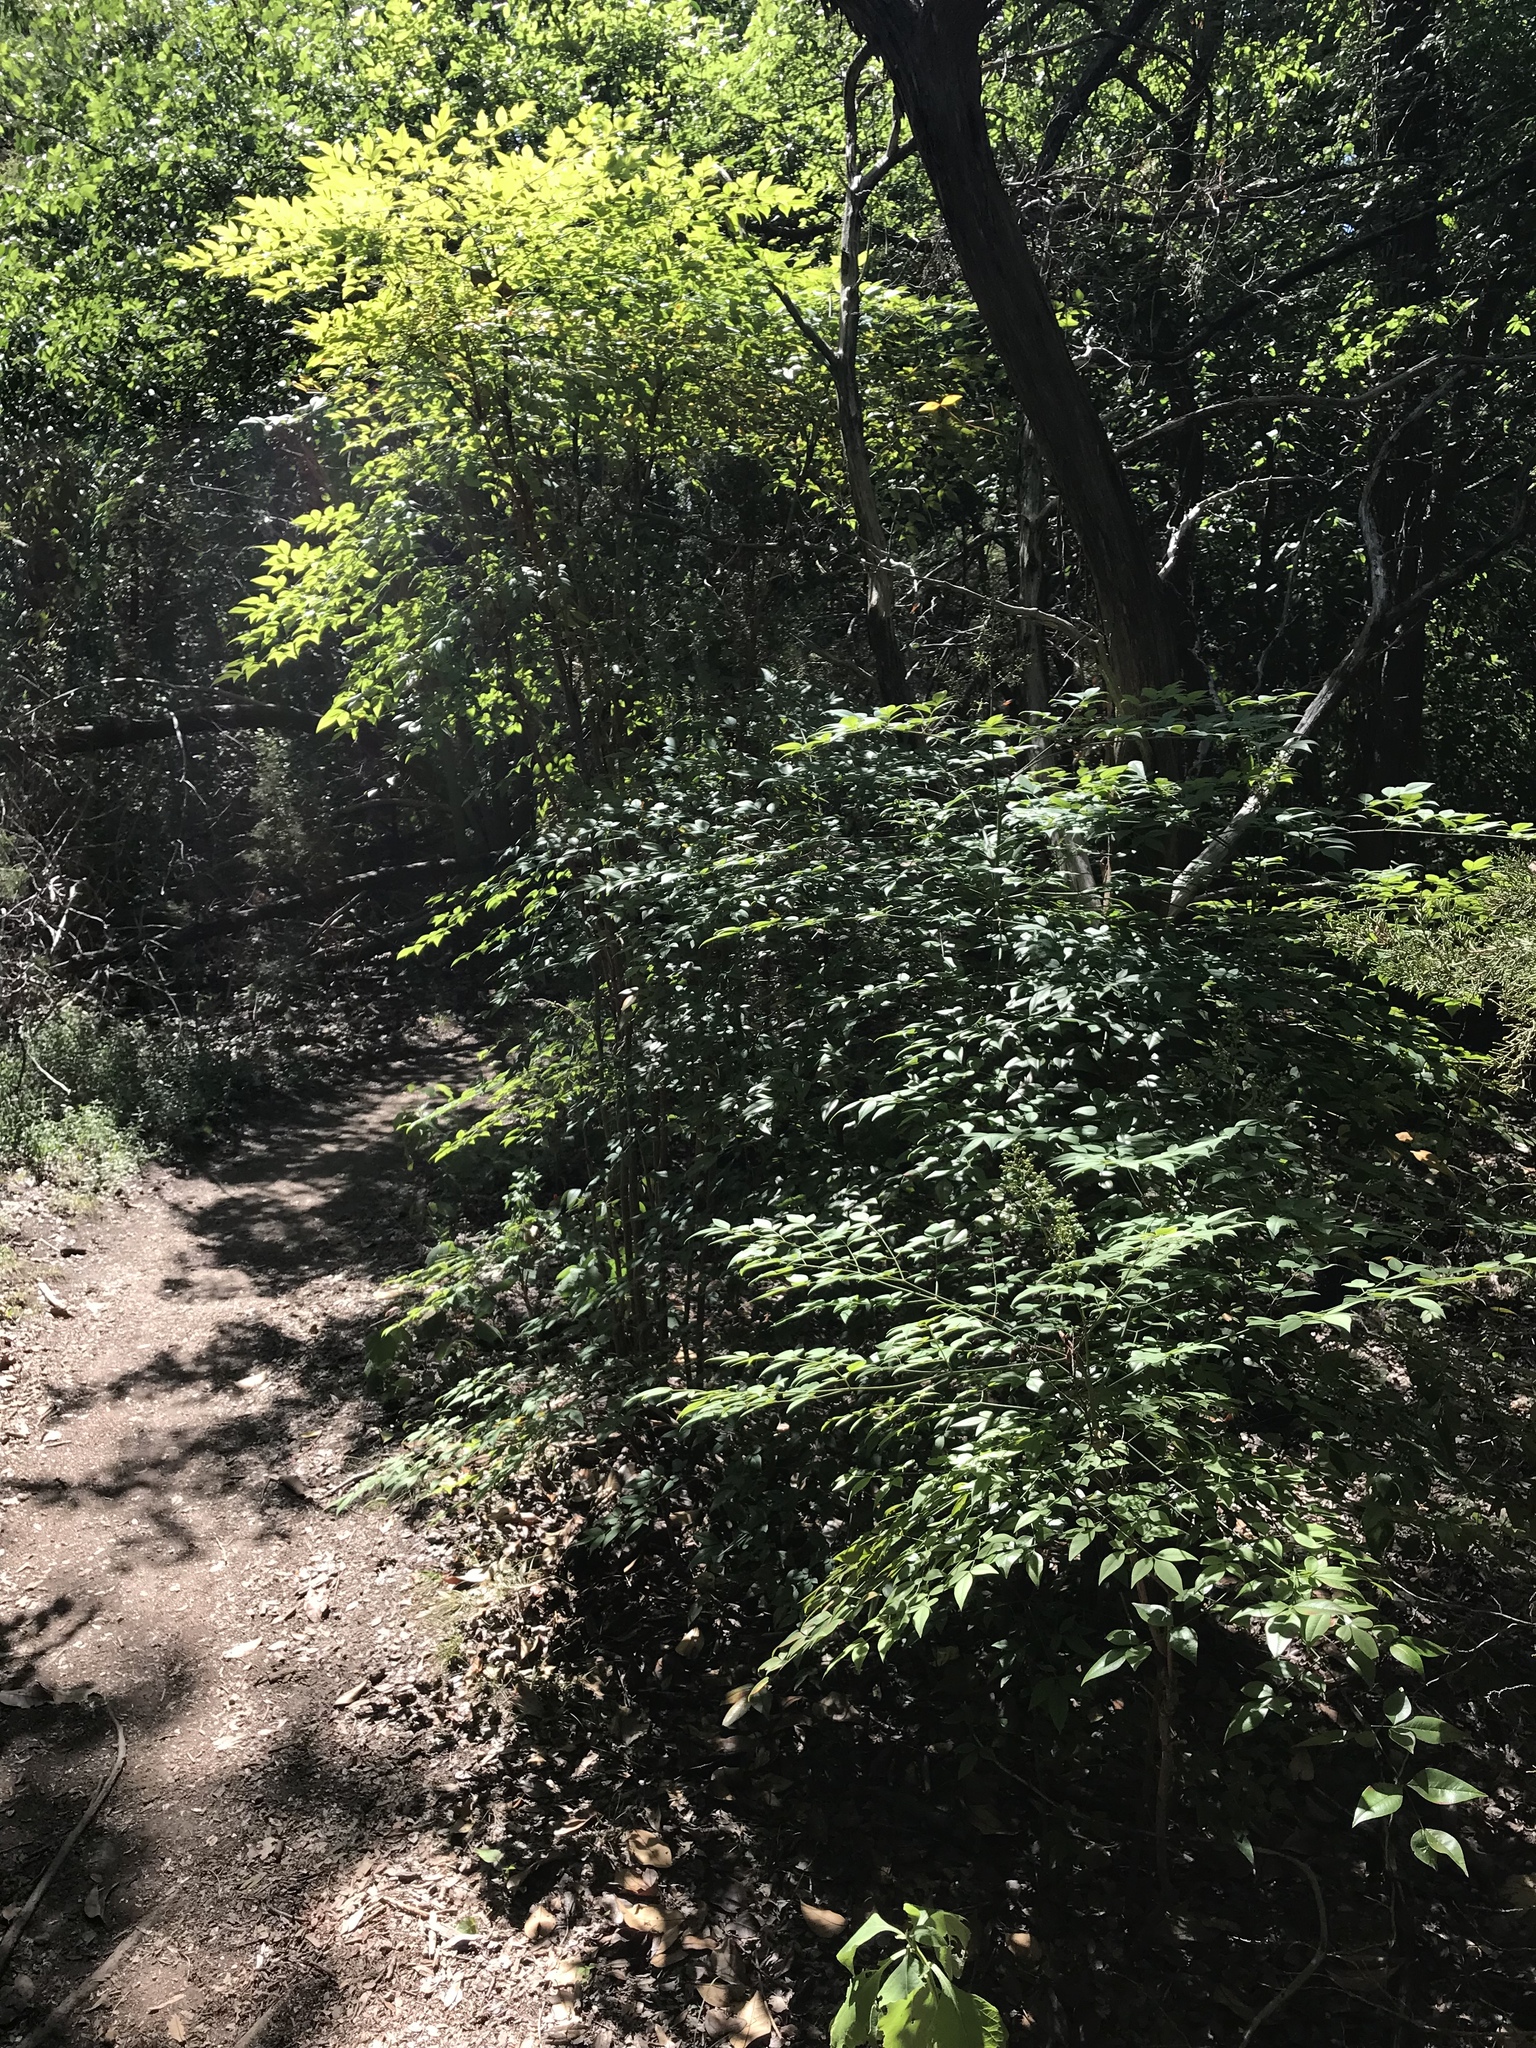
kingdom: Plantae
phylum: Tracheophyta
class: Magnoliopsida
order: Ranunculales
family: Berberidaceae
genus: Nandina
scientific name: Nandina domestica
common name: Sacred bamboo
